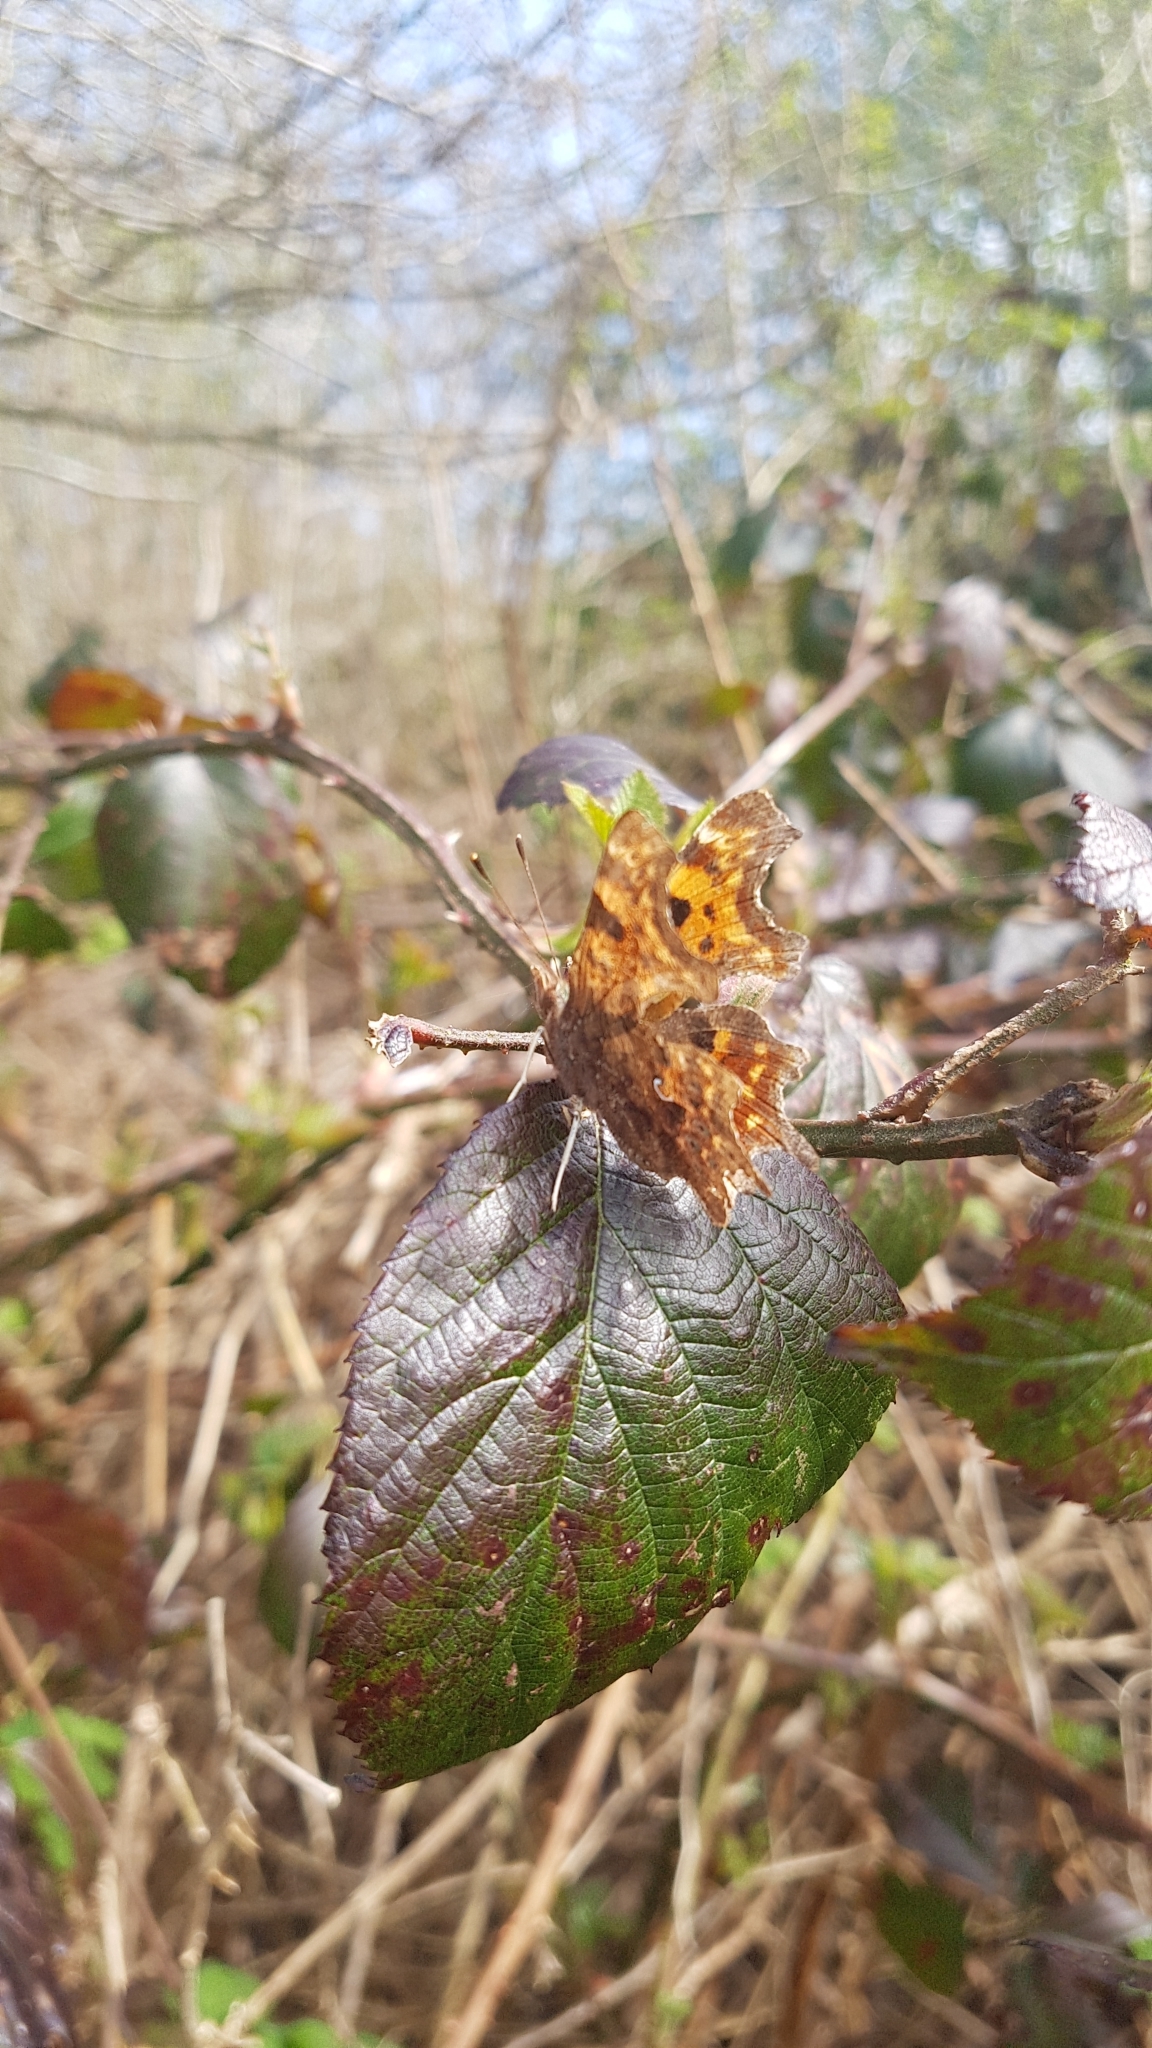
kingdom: Animalia
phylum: Arthropoda
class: Insecta
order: Lepidoptera
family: Nymphalidae
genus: Polygonia
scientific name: Polygonia c-album
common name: Comma
